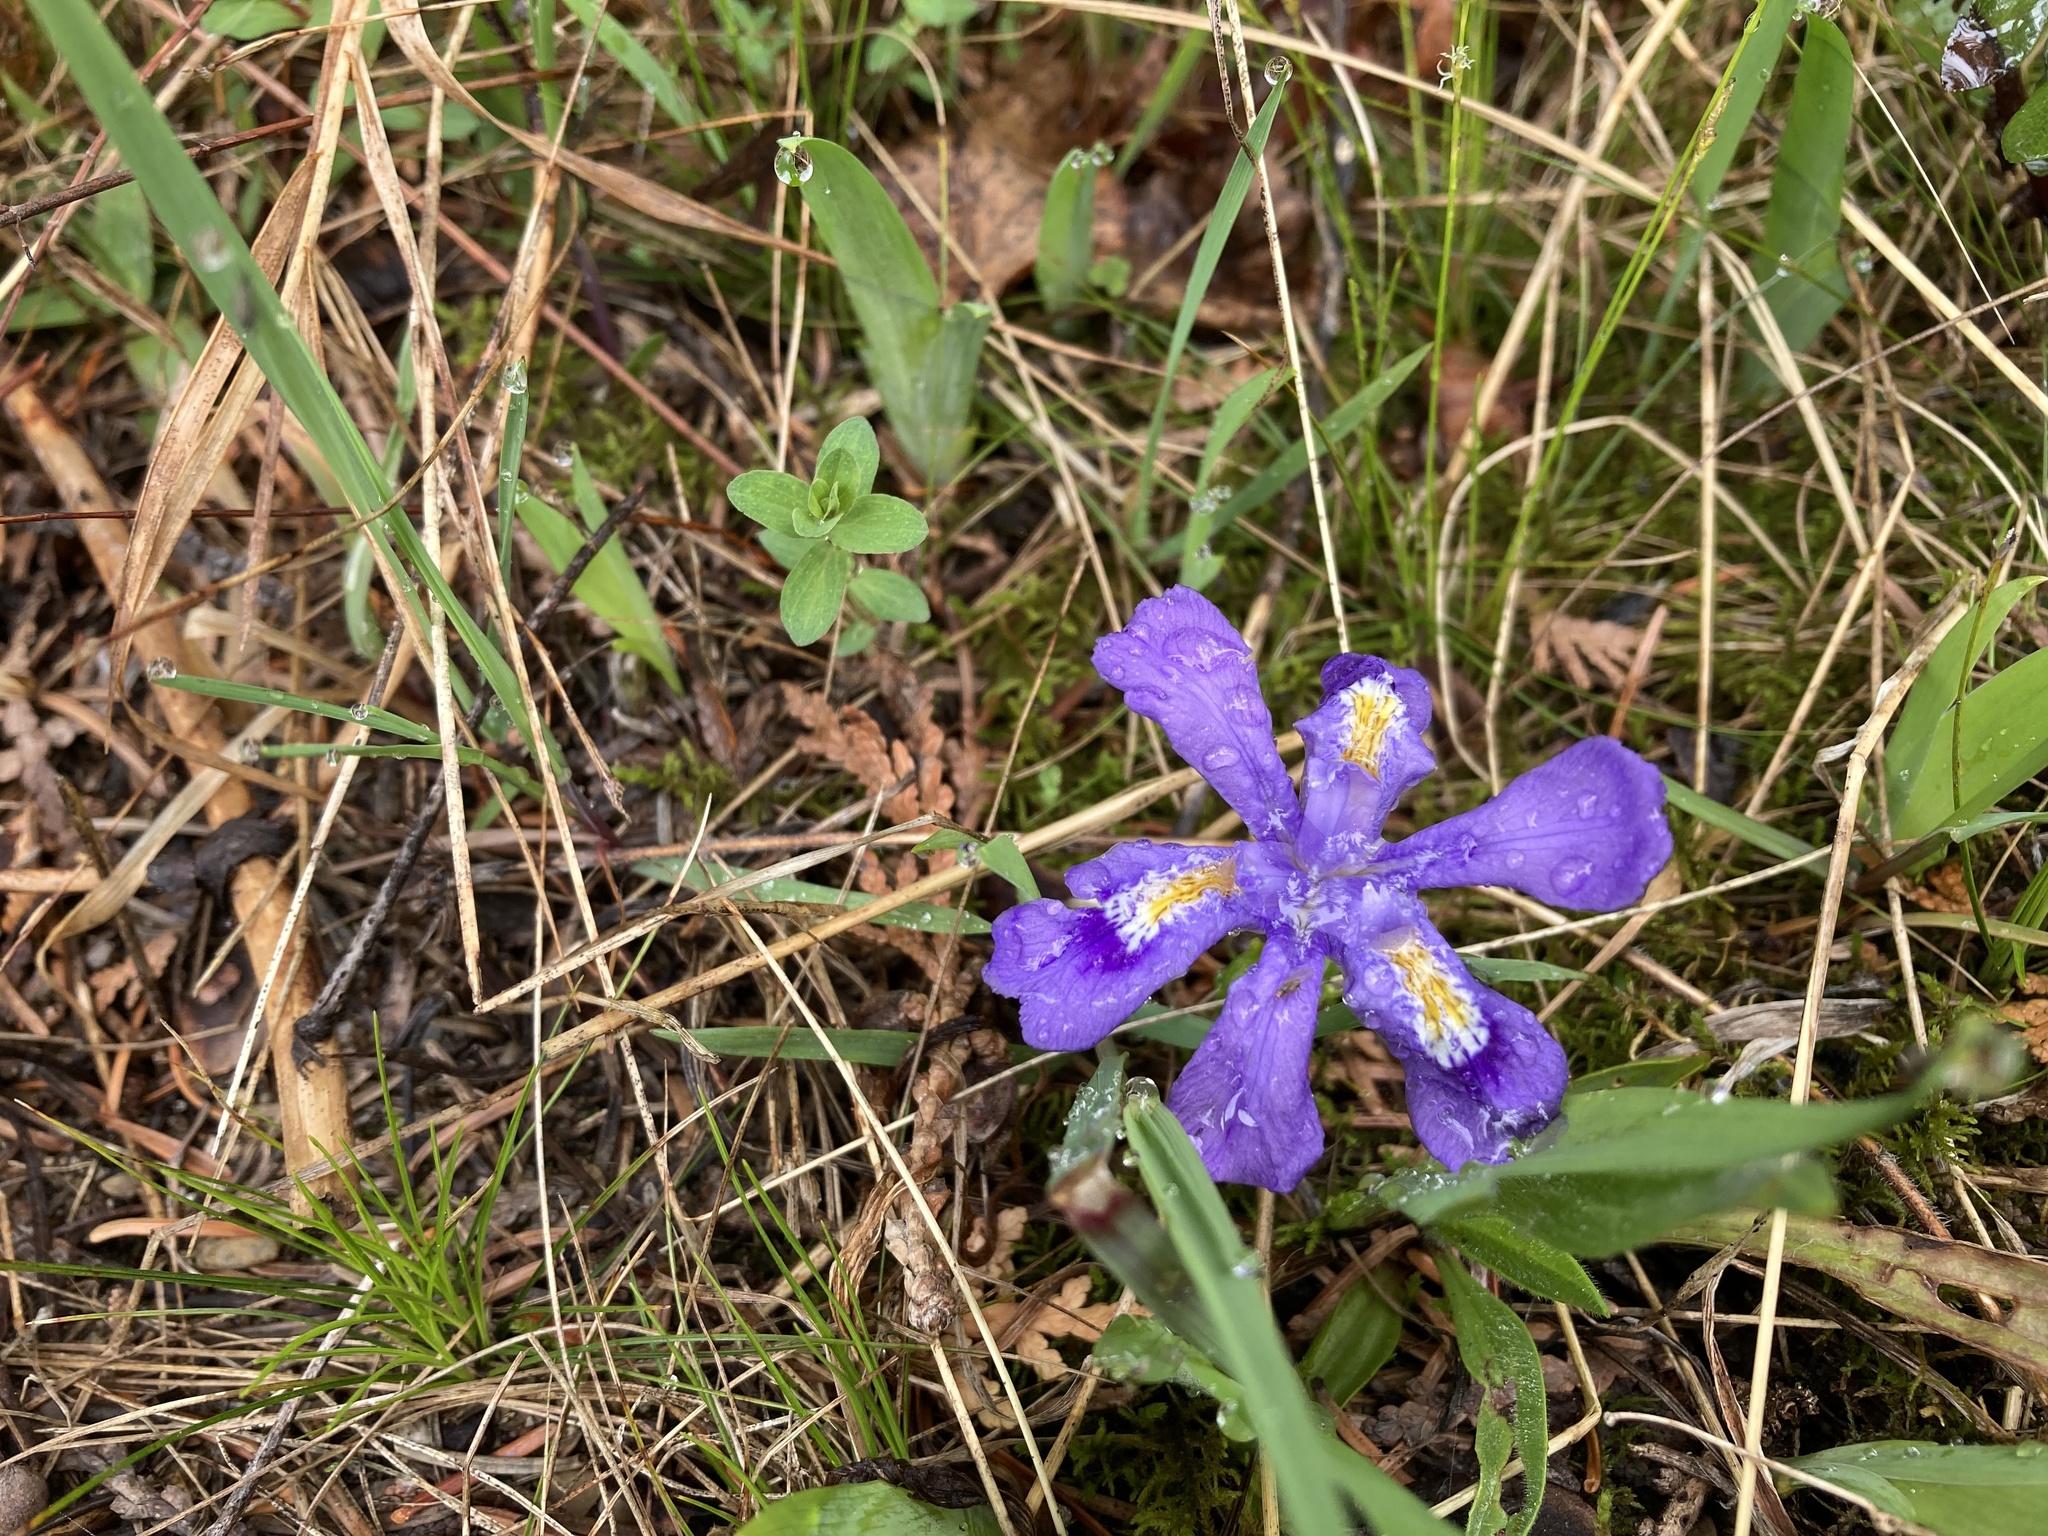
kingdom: Plantae
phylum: Tracheophyta
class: Liliopsida
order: Asparagales
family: Iridaceae
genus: Iris
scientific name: Iris lacustris
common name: Dwarf lake iris
